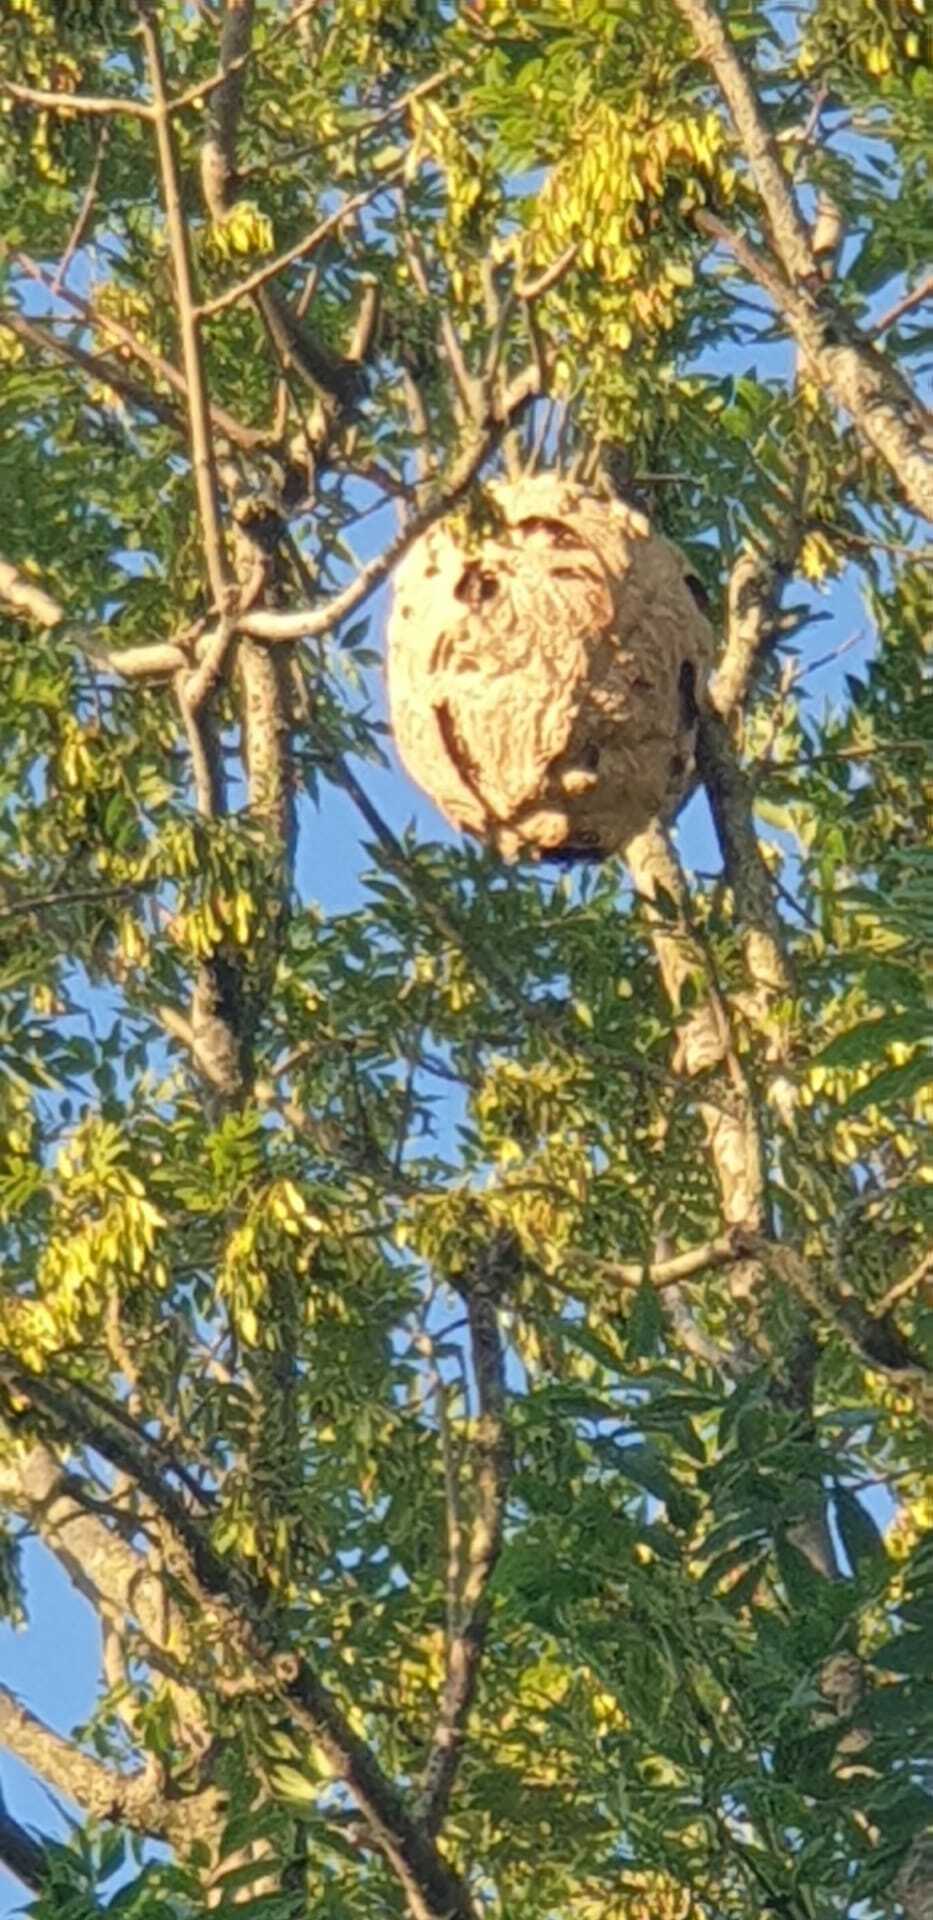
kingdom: Animalia
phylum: Arthropoda
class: Insecta
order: Hymenoptera
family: Vespidae
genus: Vespa
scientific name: Vespa velutina
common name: Asian hornet
